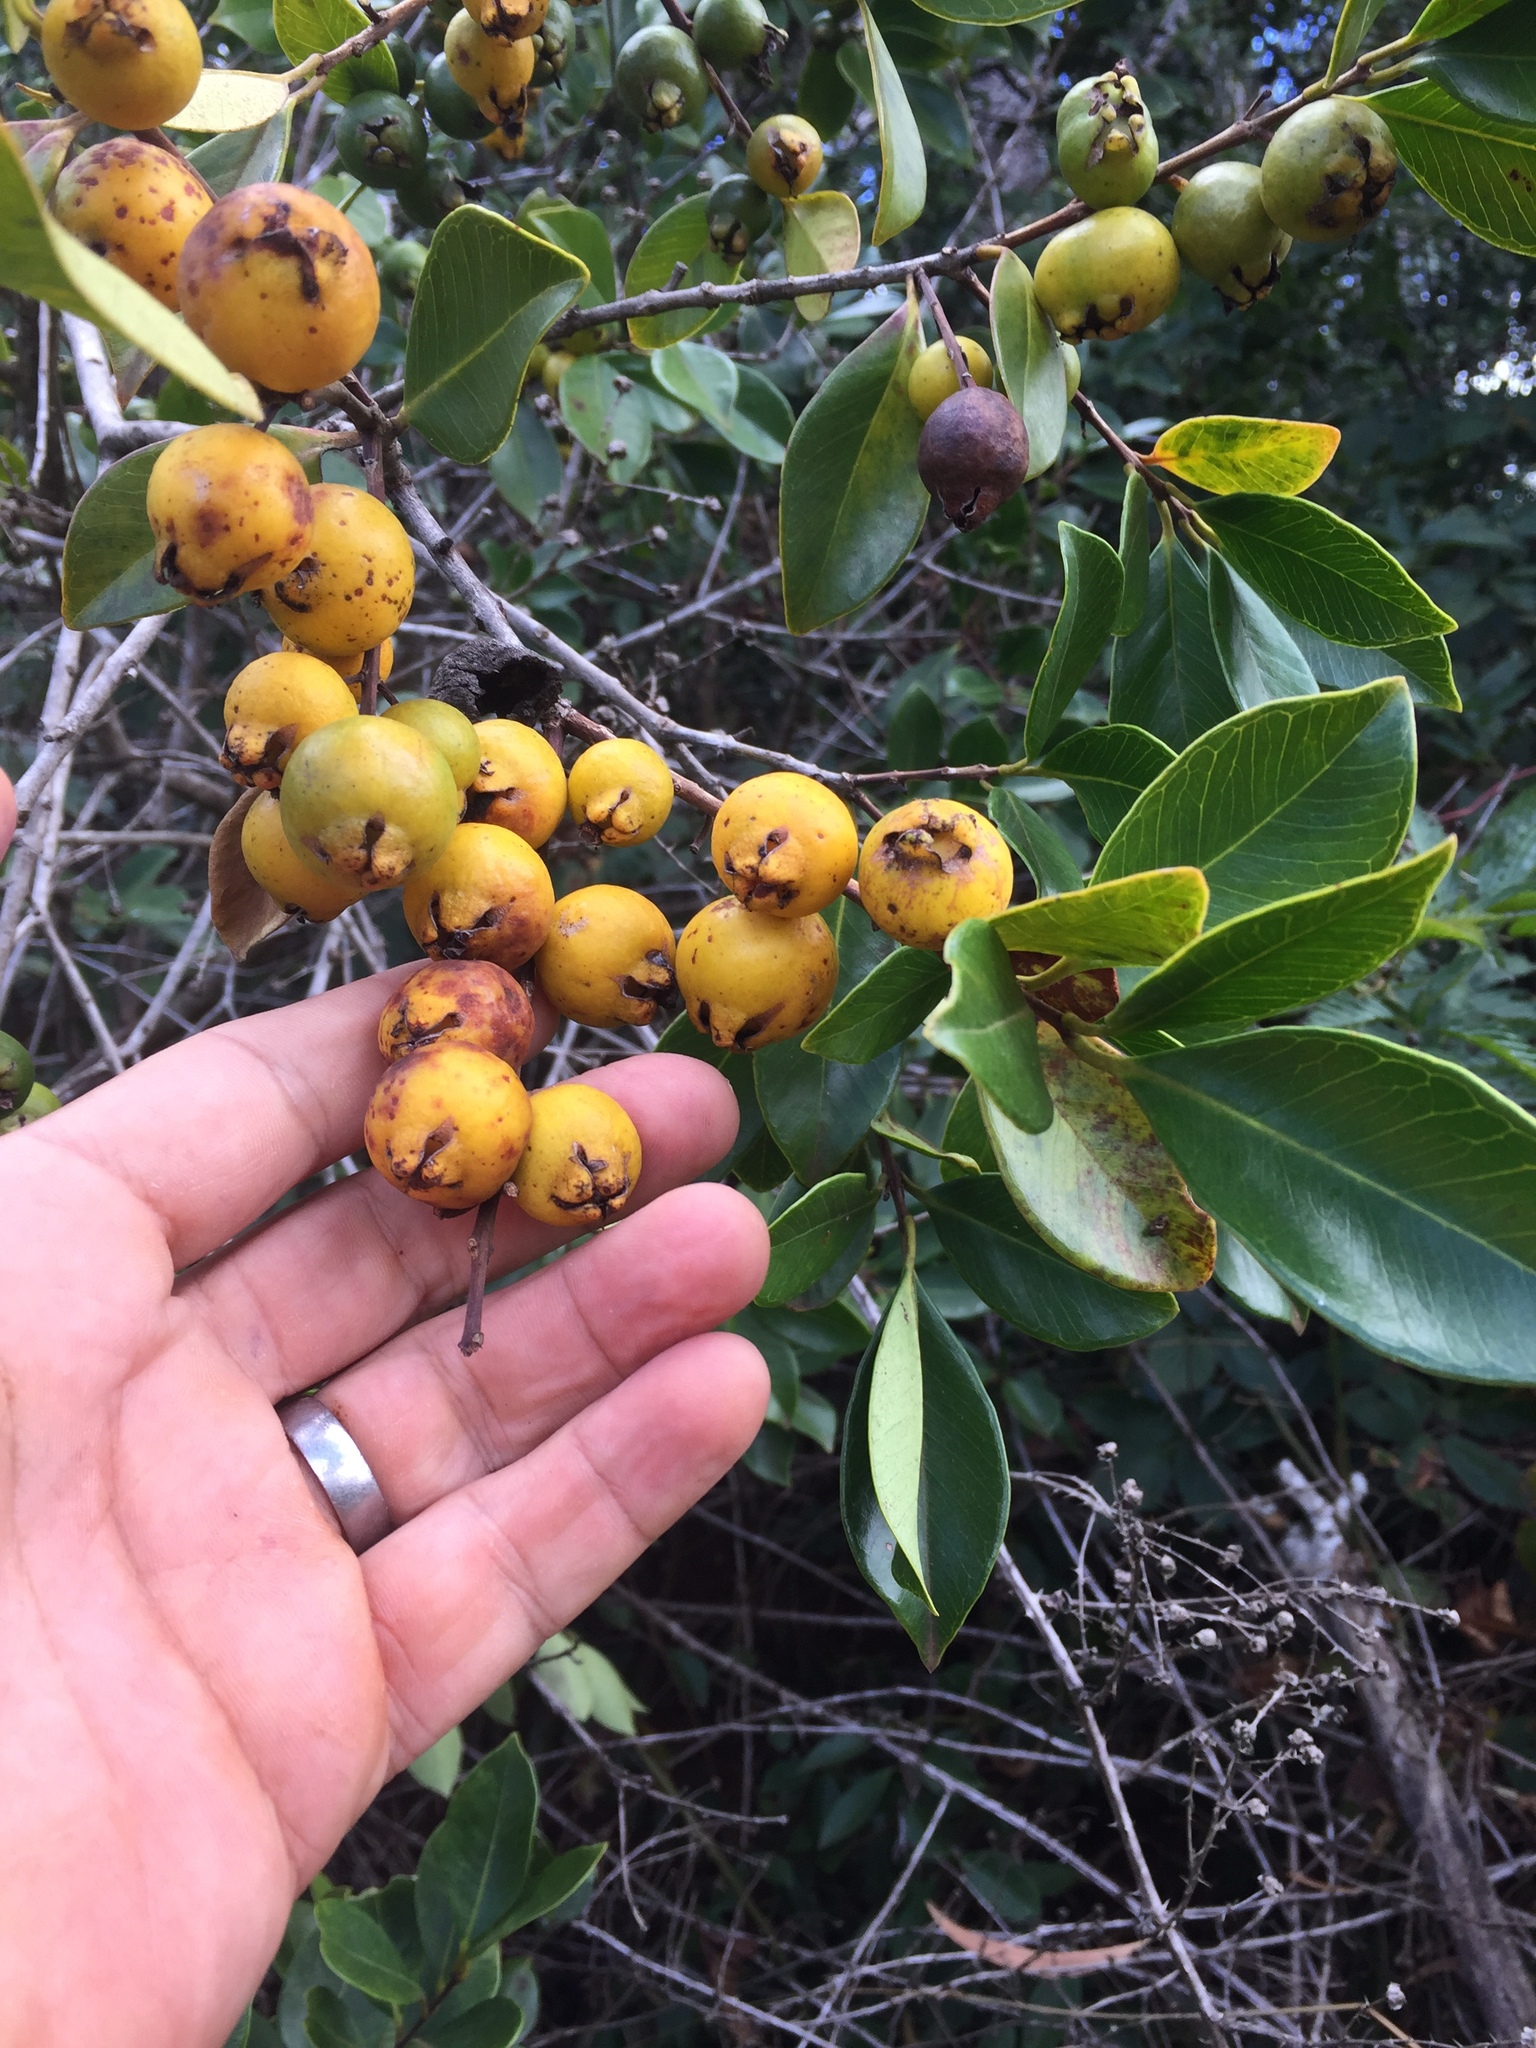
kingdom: Plantae
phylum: Tracheophyta
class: Magnoliopsida
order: Myrtales
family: Myrtaceae
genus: Psidium
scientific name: Psidium cattleianum
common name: Strawberry guava
